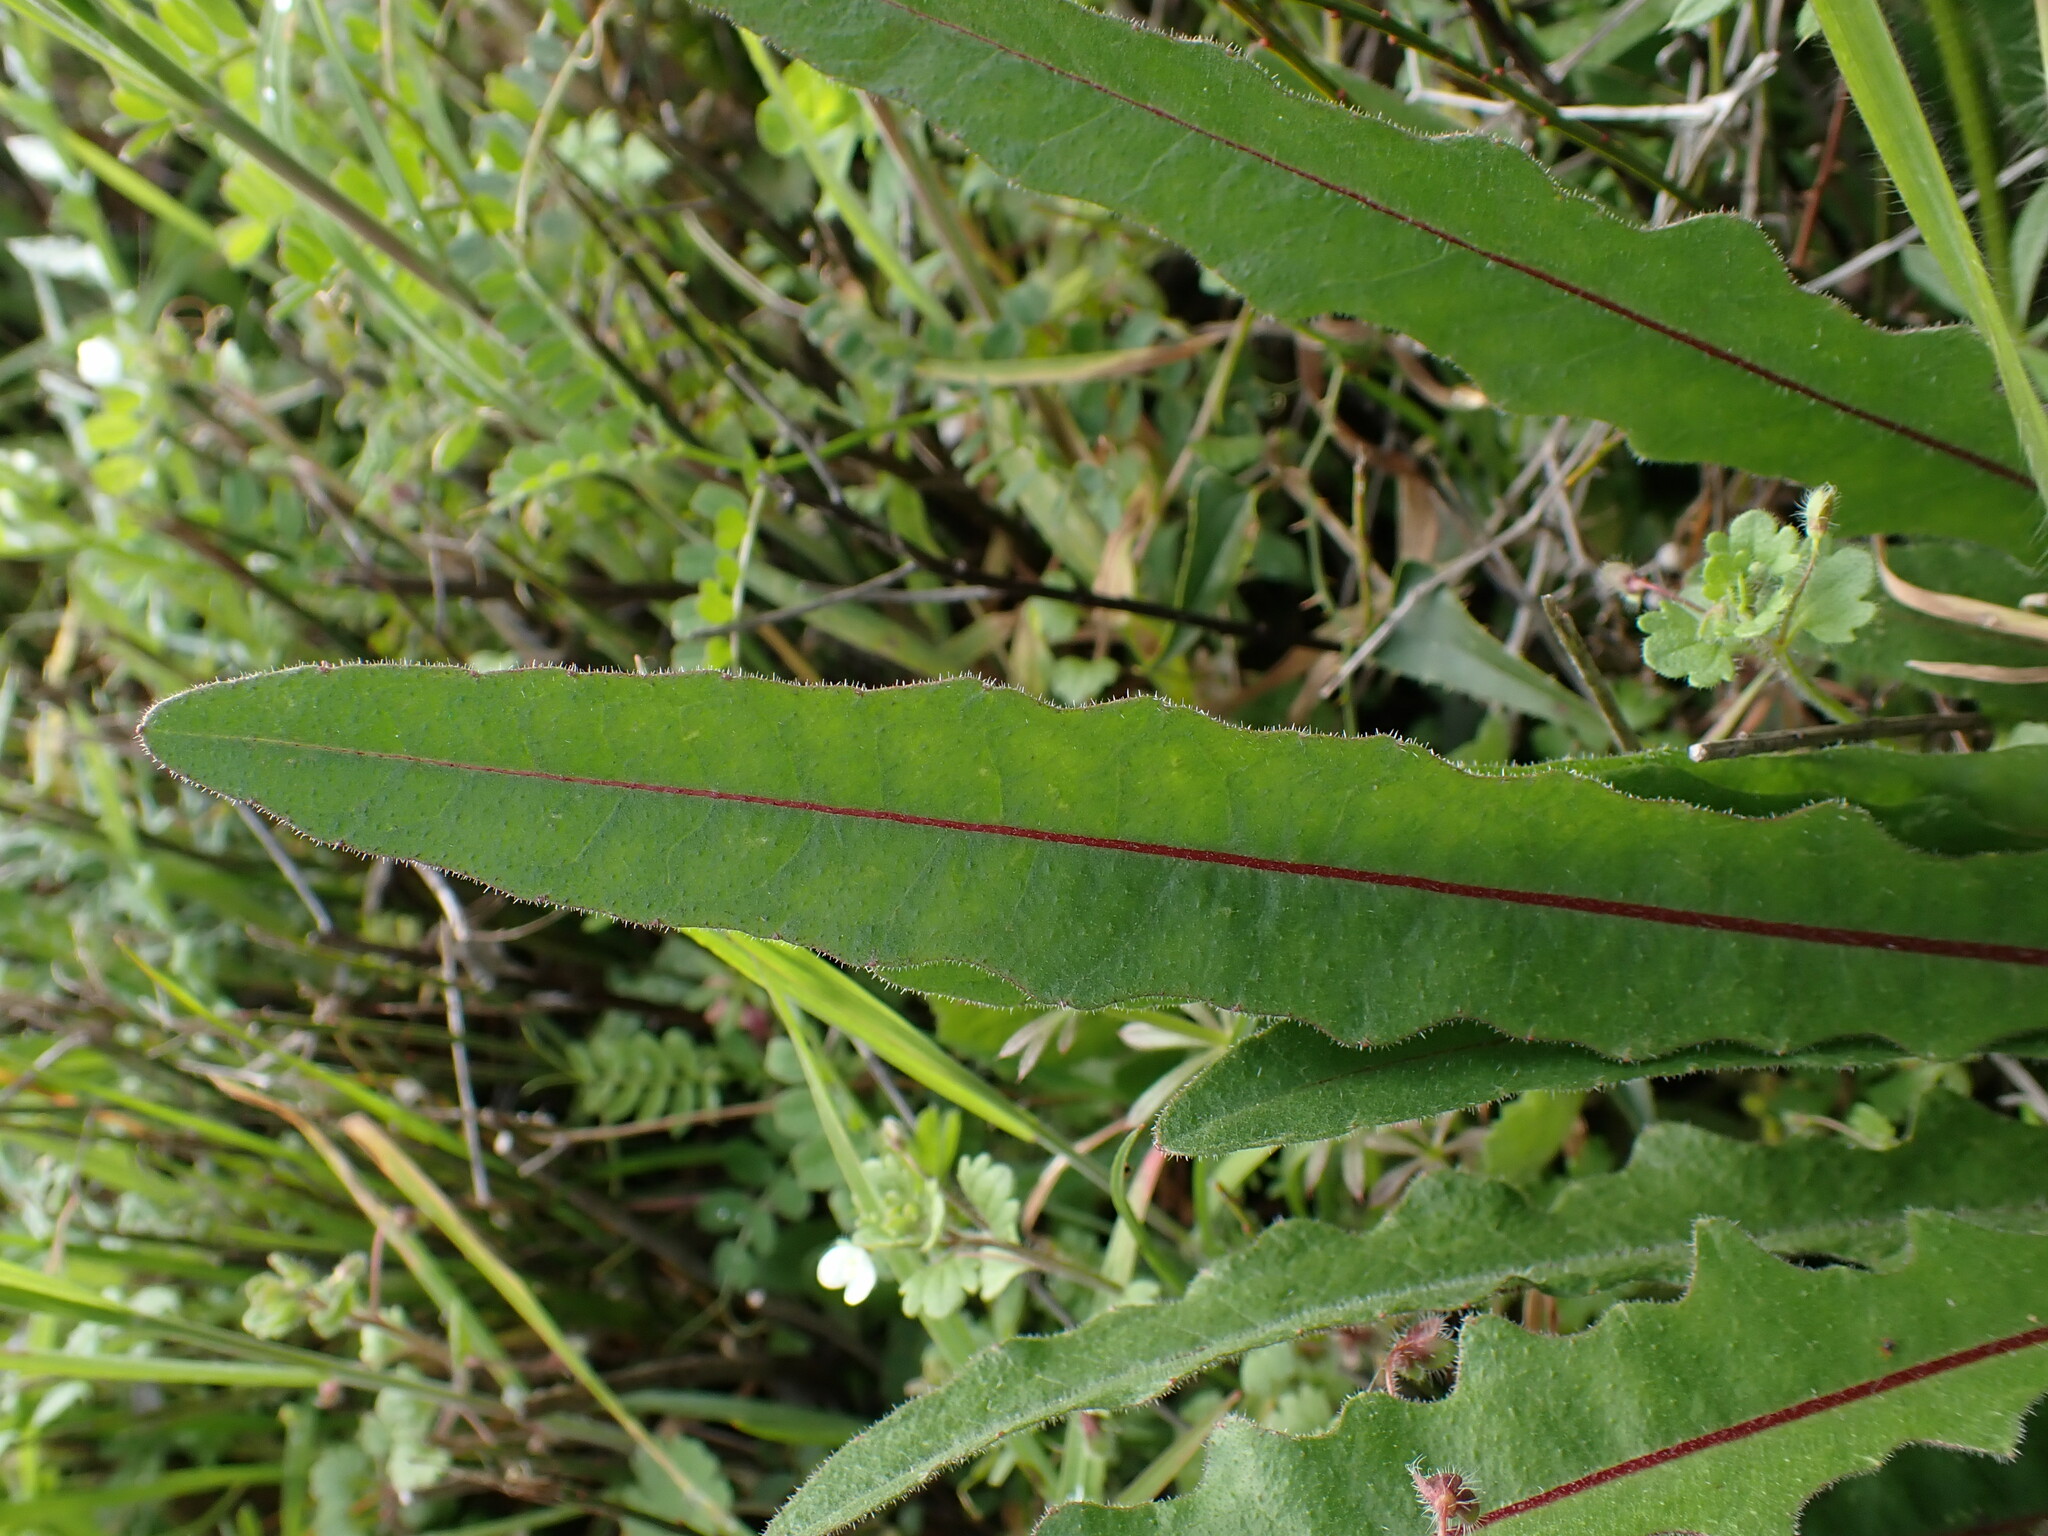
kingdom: Plantae
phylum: Tracheophyta
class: Magnoliopsida
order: Asterales
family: Asteraceae
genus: Picris
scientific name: Picris hieracioides
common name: Hawkweed oxtongue
